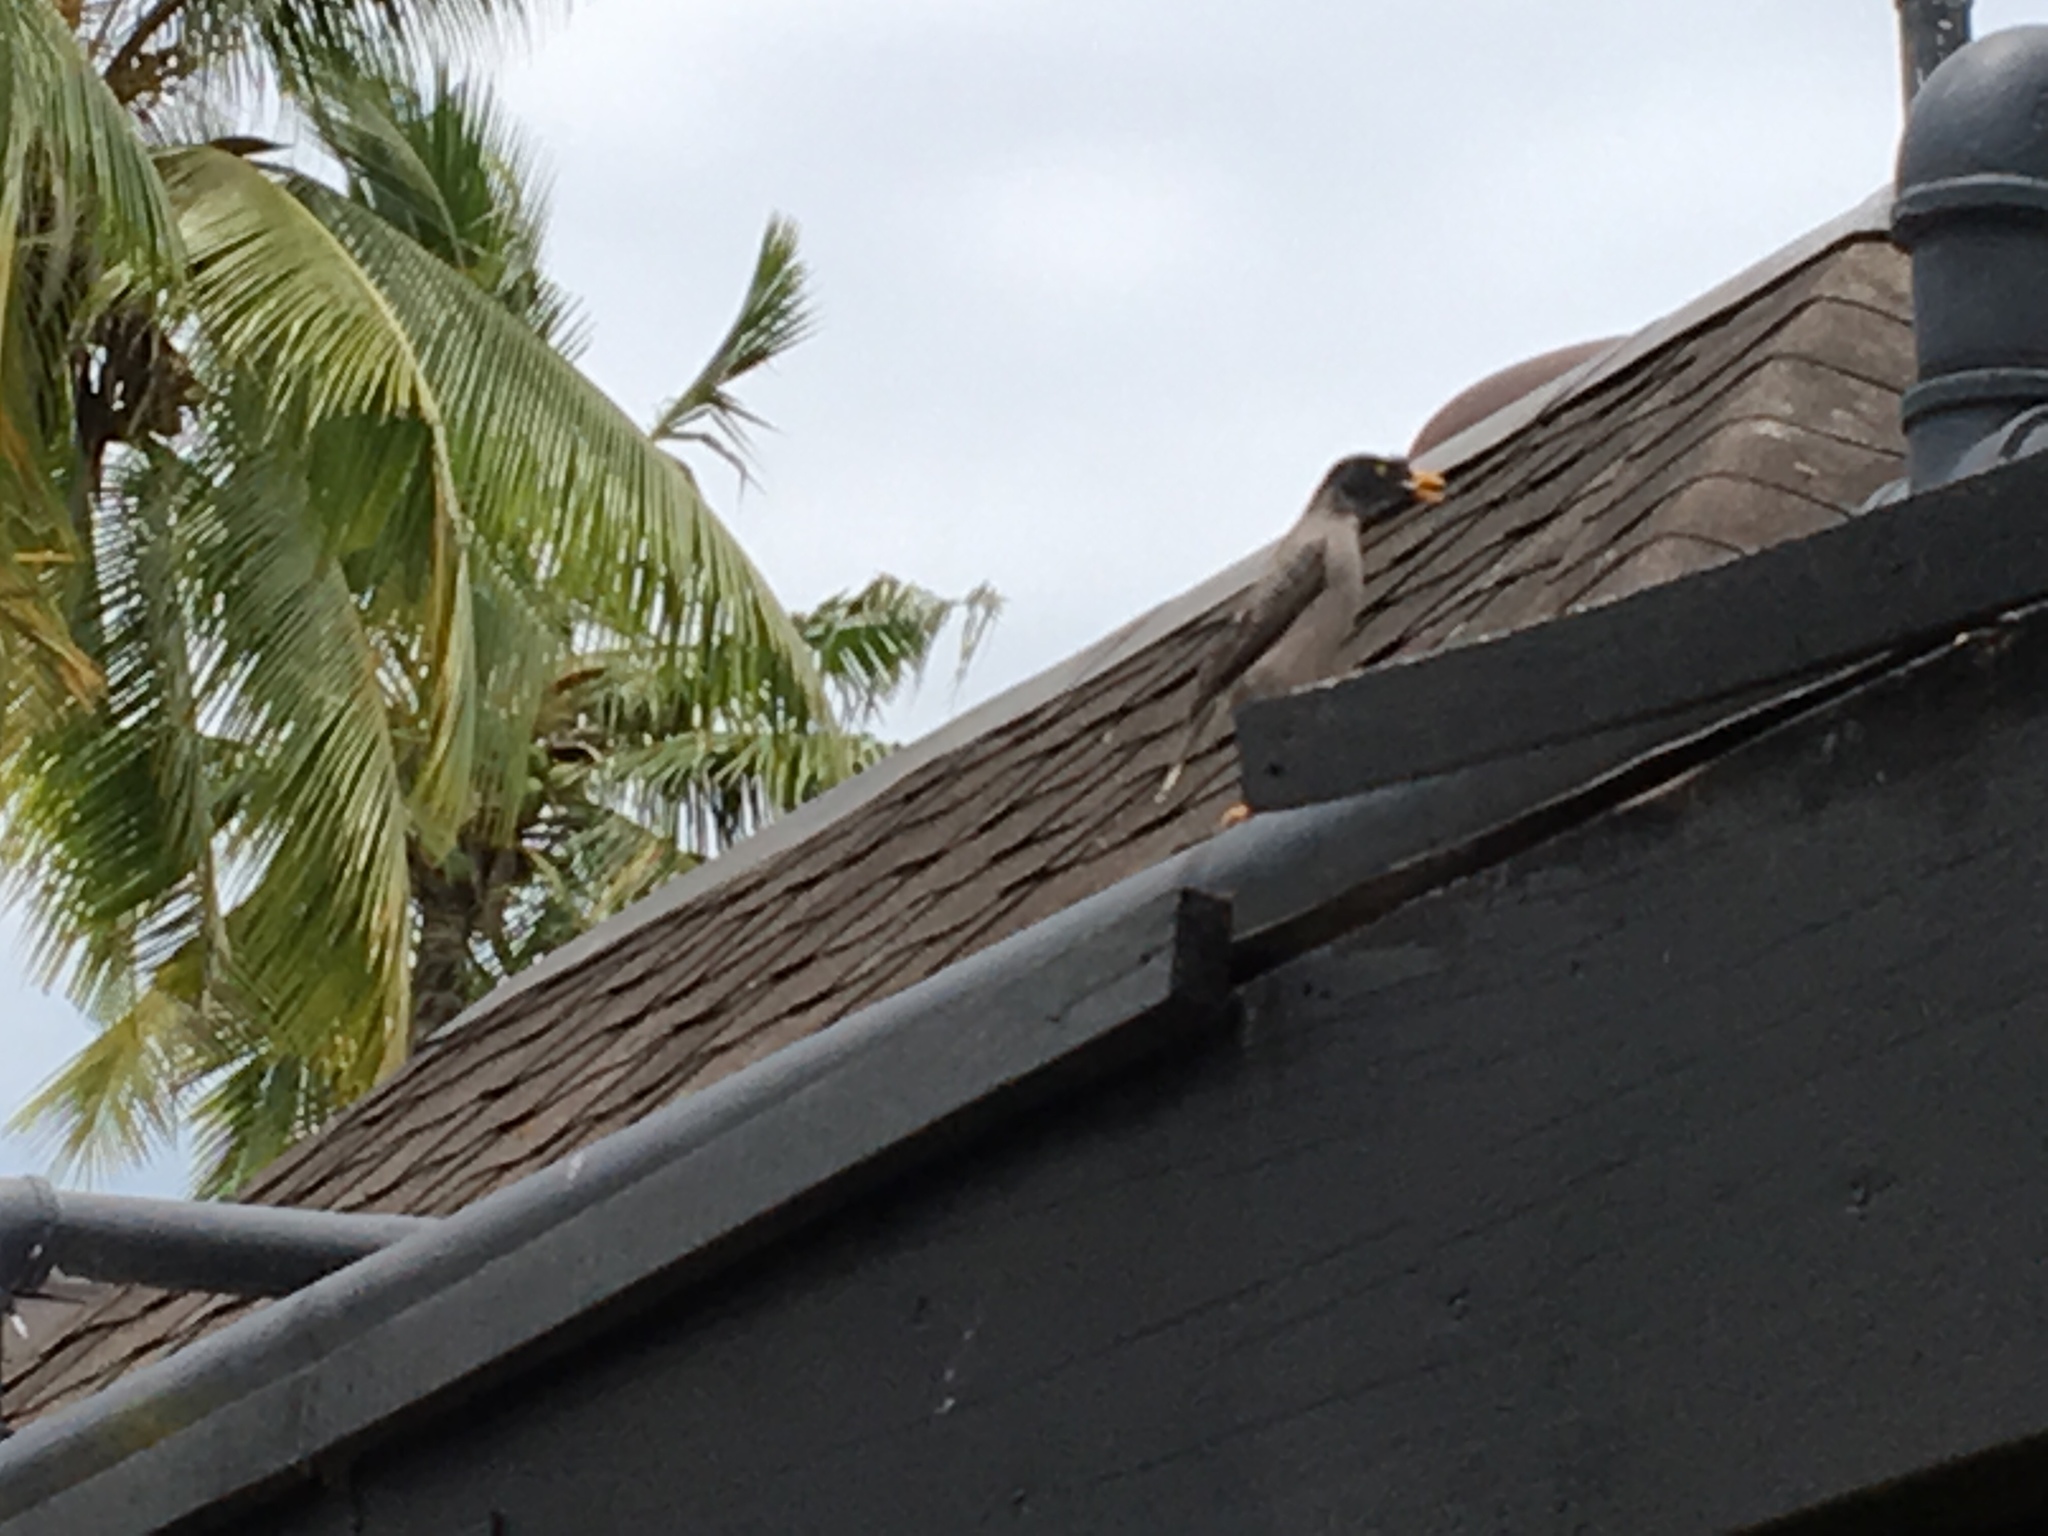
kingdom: Animalia
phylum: Chordata
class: Aves
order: Passeriformes
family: Sturnidae
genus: Acridotheres
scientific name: Acridotheres fuscus
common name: Jungle myna
